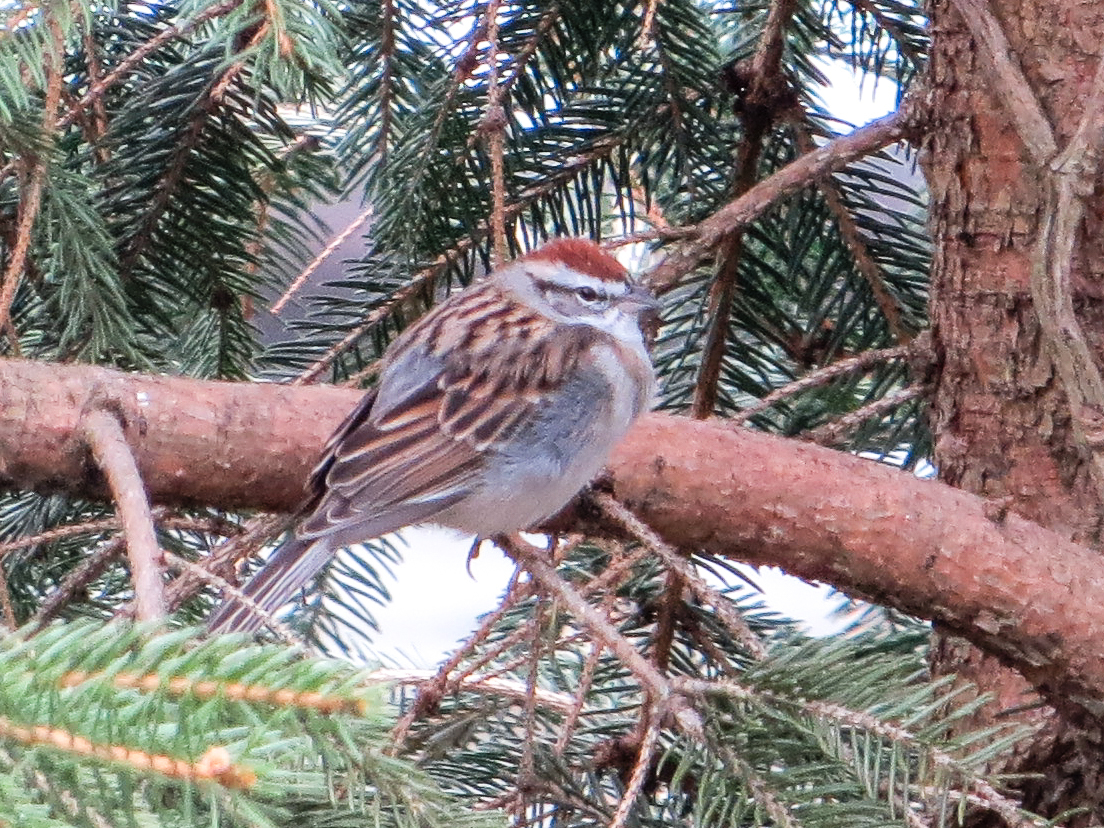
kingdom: Animalia
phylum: Chordata
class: Aves
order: Passeriformes
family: Passerellidae
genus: Spizella
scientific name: Spizella passerina
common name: Chipping sparrow
